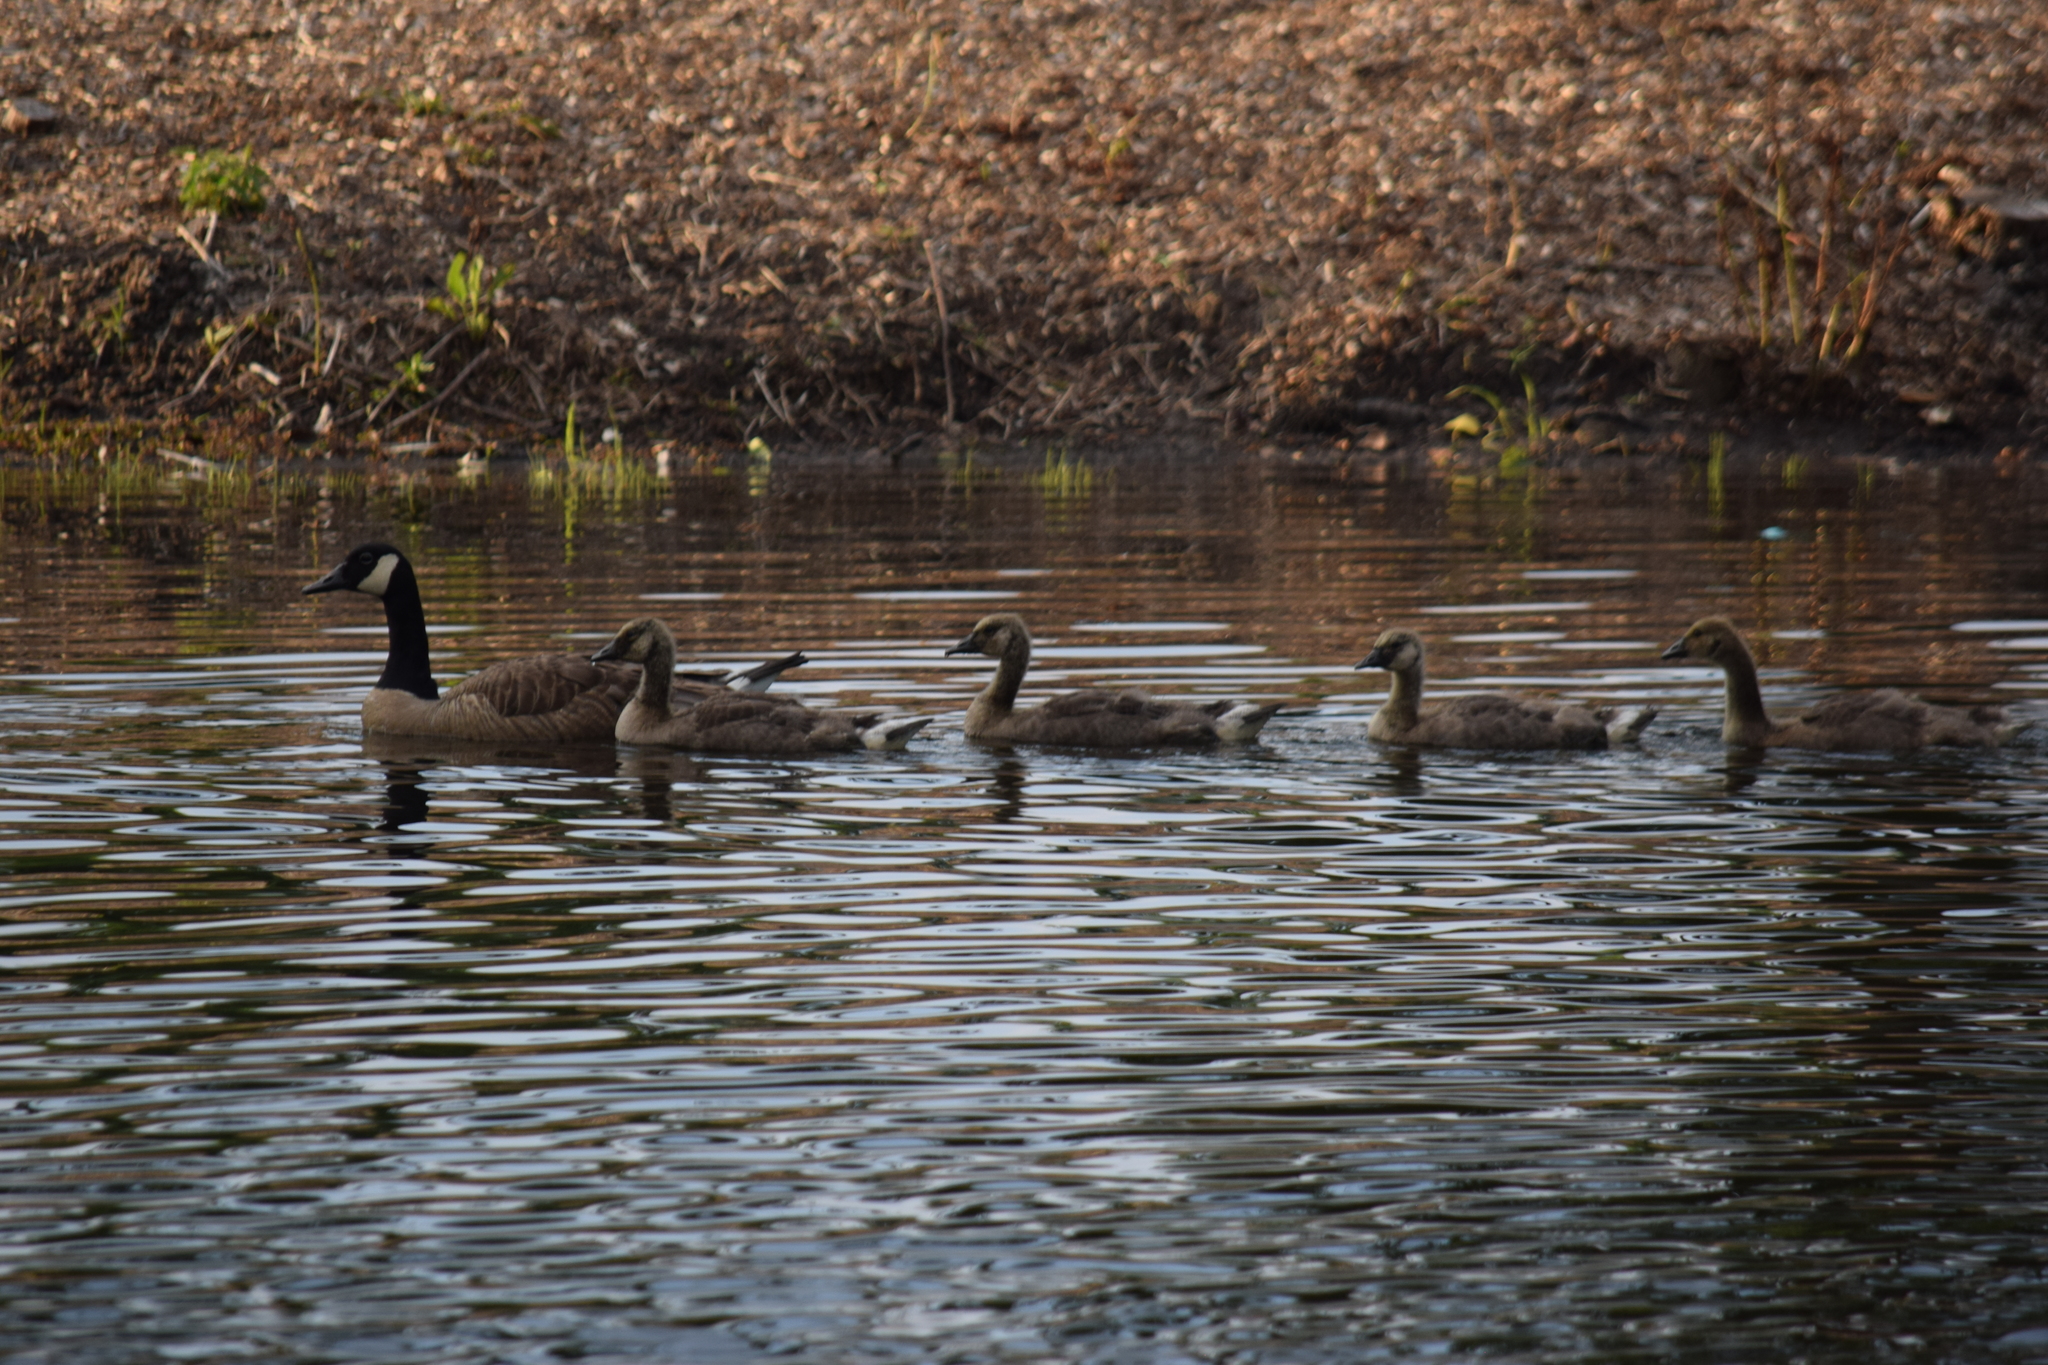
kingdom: Animalia
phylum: Chordata
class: Aves
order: Anseriformes
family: Anatidae
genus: Branta
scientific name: Branta canadensis
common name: Canada goose
